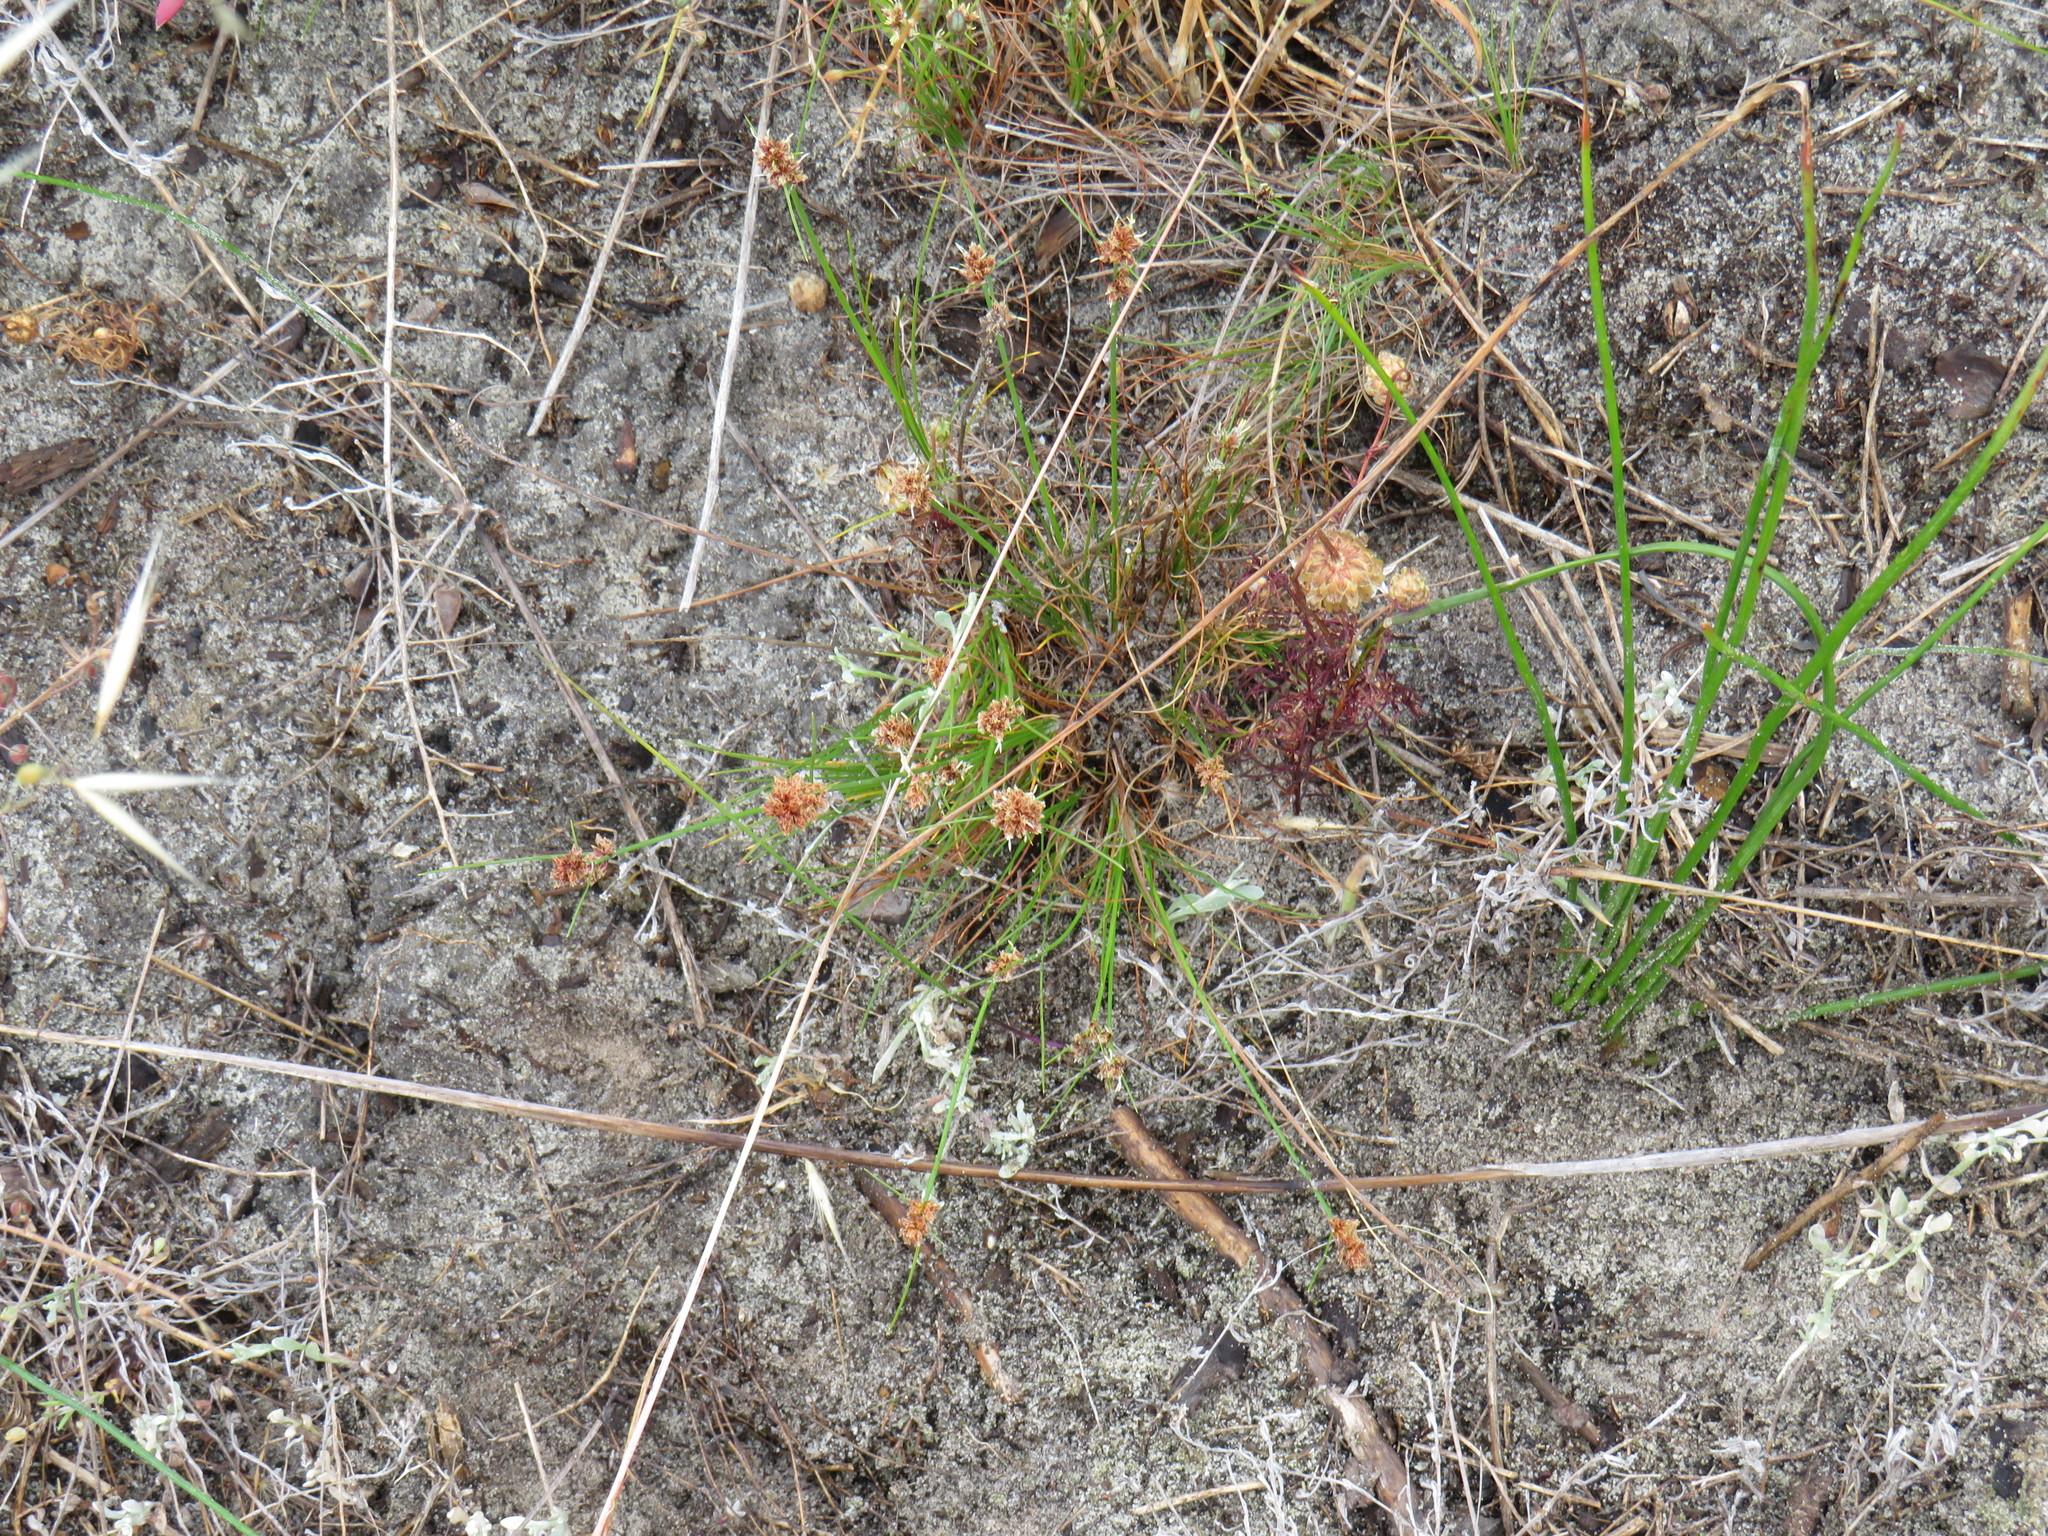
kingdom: Plantae
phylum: Tracheophyta
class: Liliopsida
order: Poales
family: Cyperaceae
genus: Ficinia
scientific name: Ficinia bulbosa
